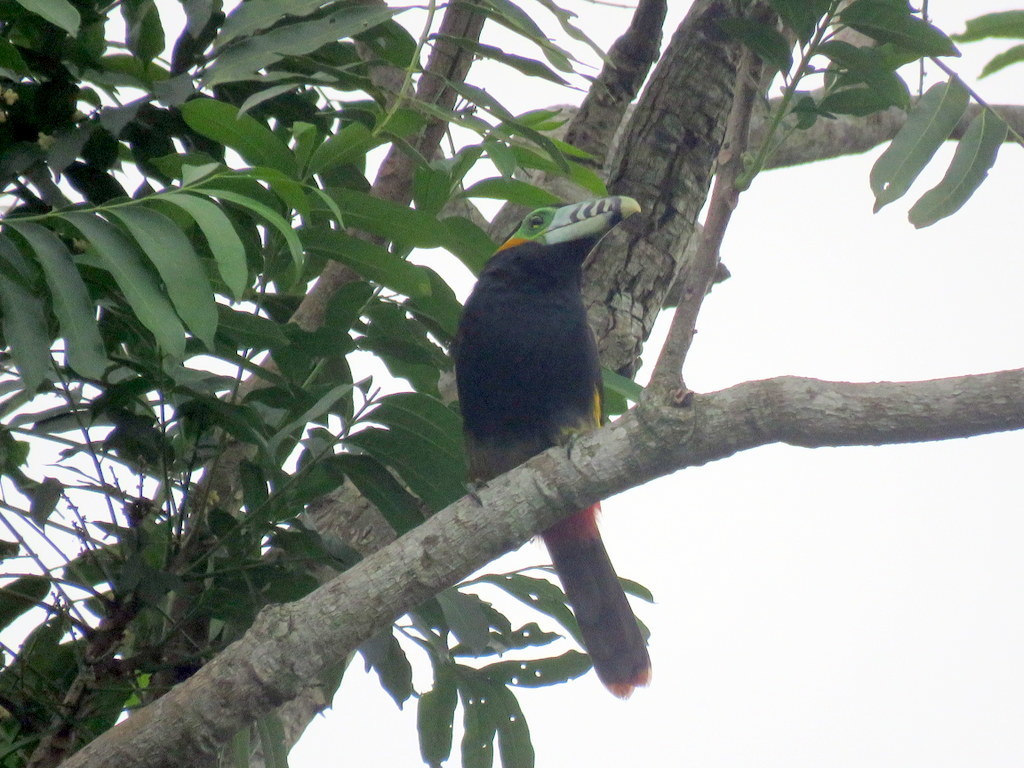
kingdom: Animalia
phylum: Chordata
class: Aves
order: Piciformes
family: Ramphastidae
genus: Selenidera
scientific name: Selenidera maculirostris
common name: Spot-billed toucanet
